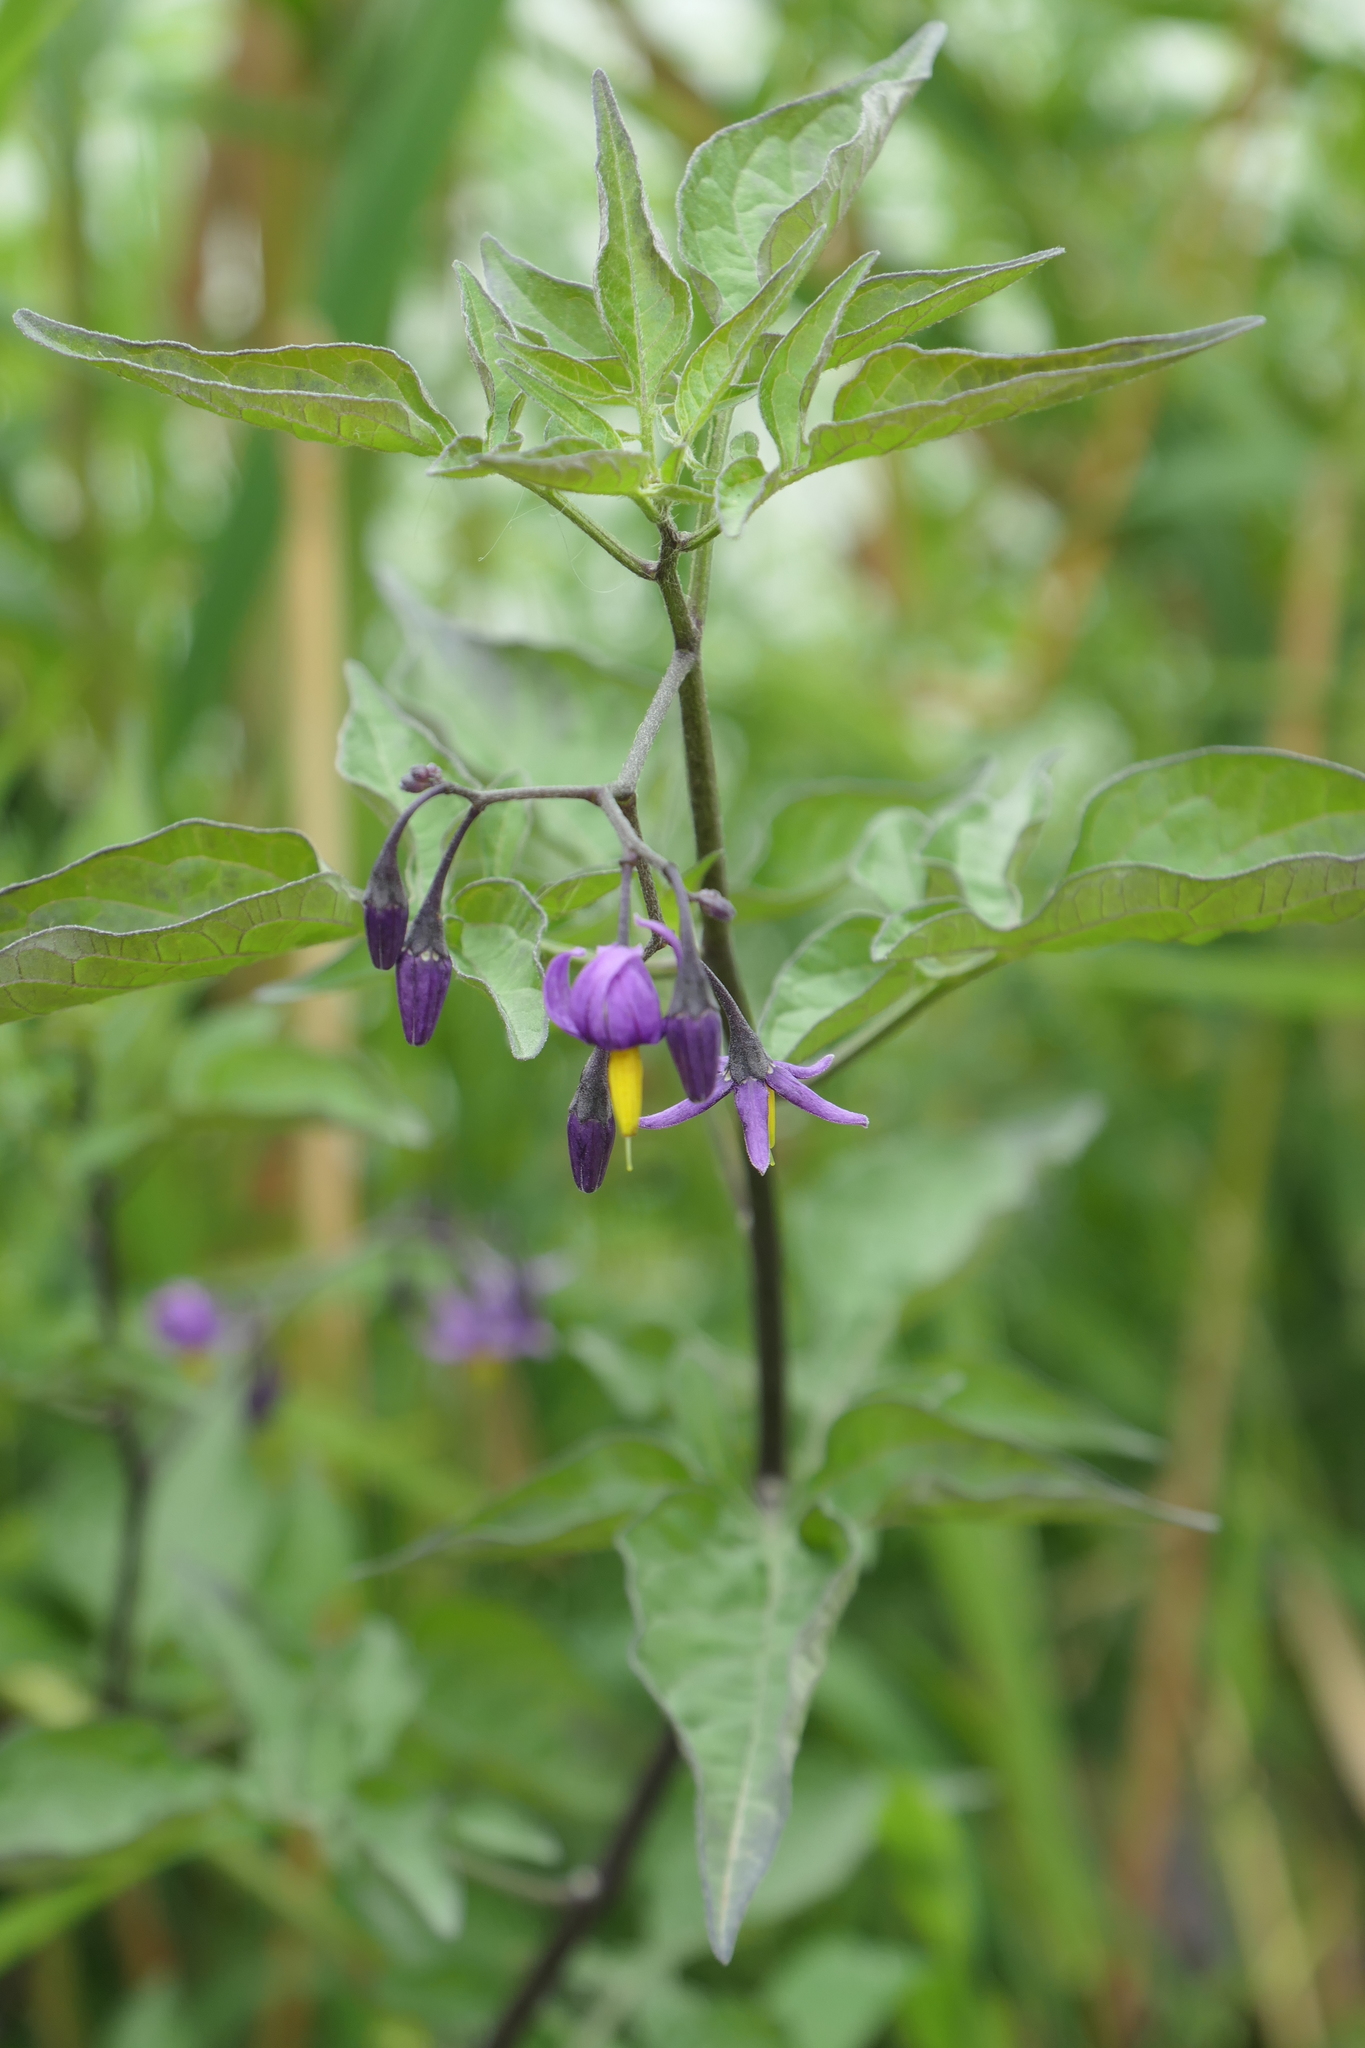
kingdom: Plantae
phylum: Tracheophyta
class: Magnoliopsida
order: Solanales
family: Solanaceae
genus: Solanum
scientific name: Solanum dulcamara
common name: Climbing nightshade
